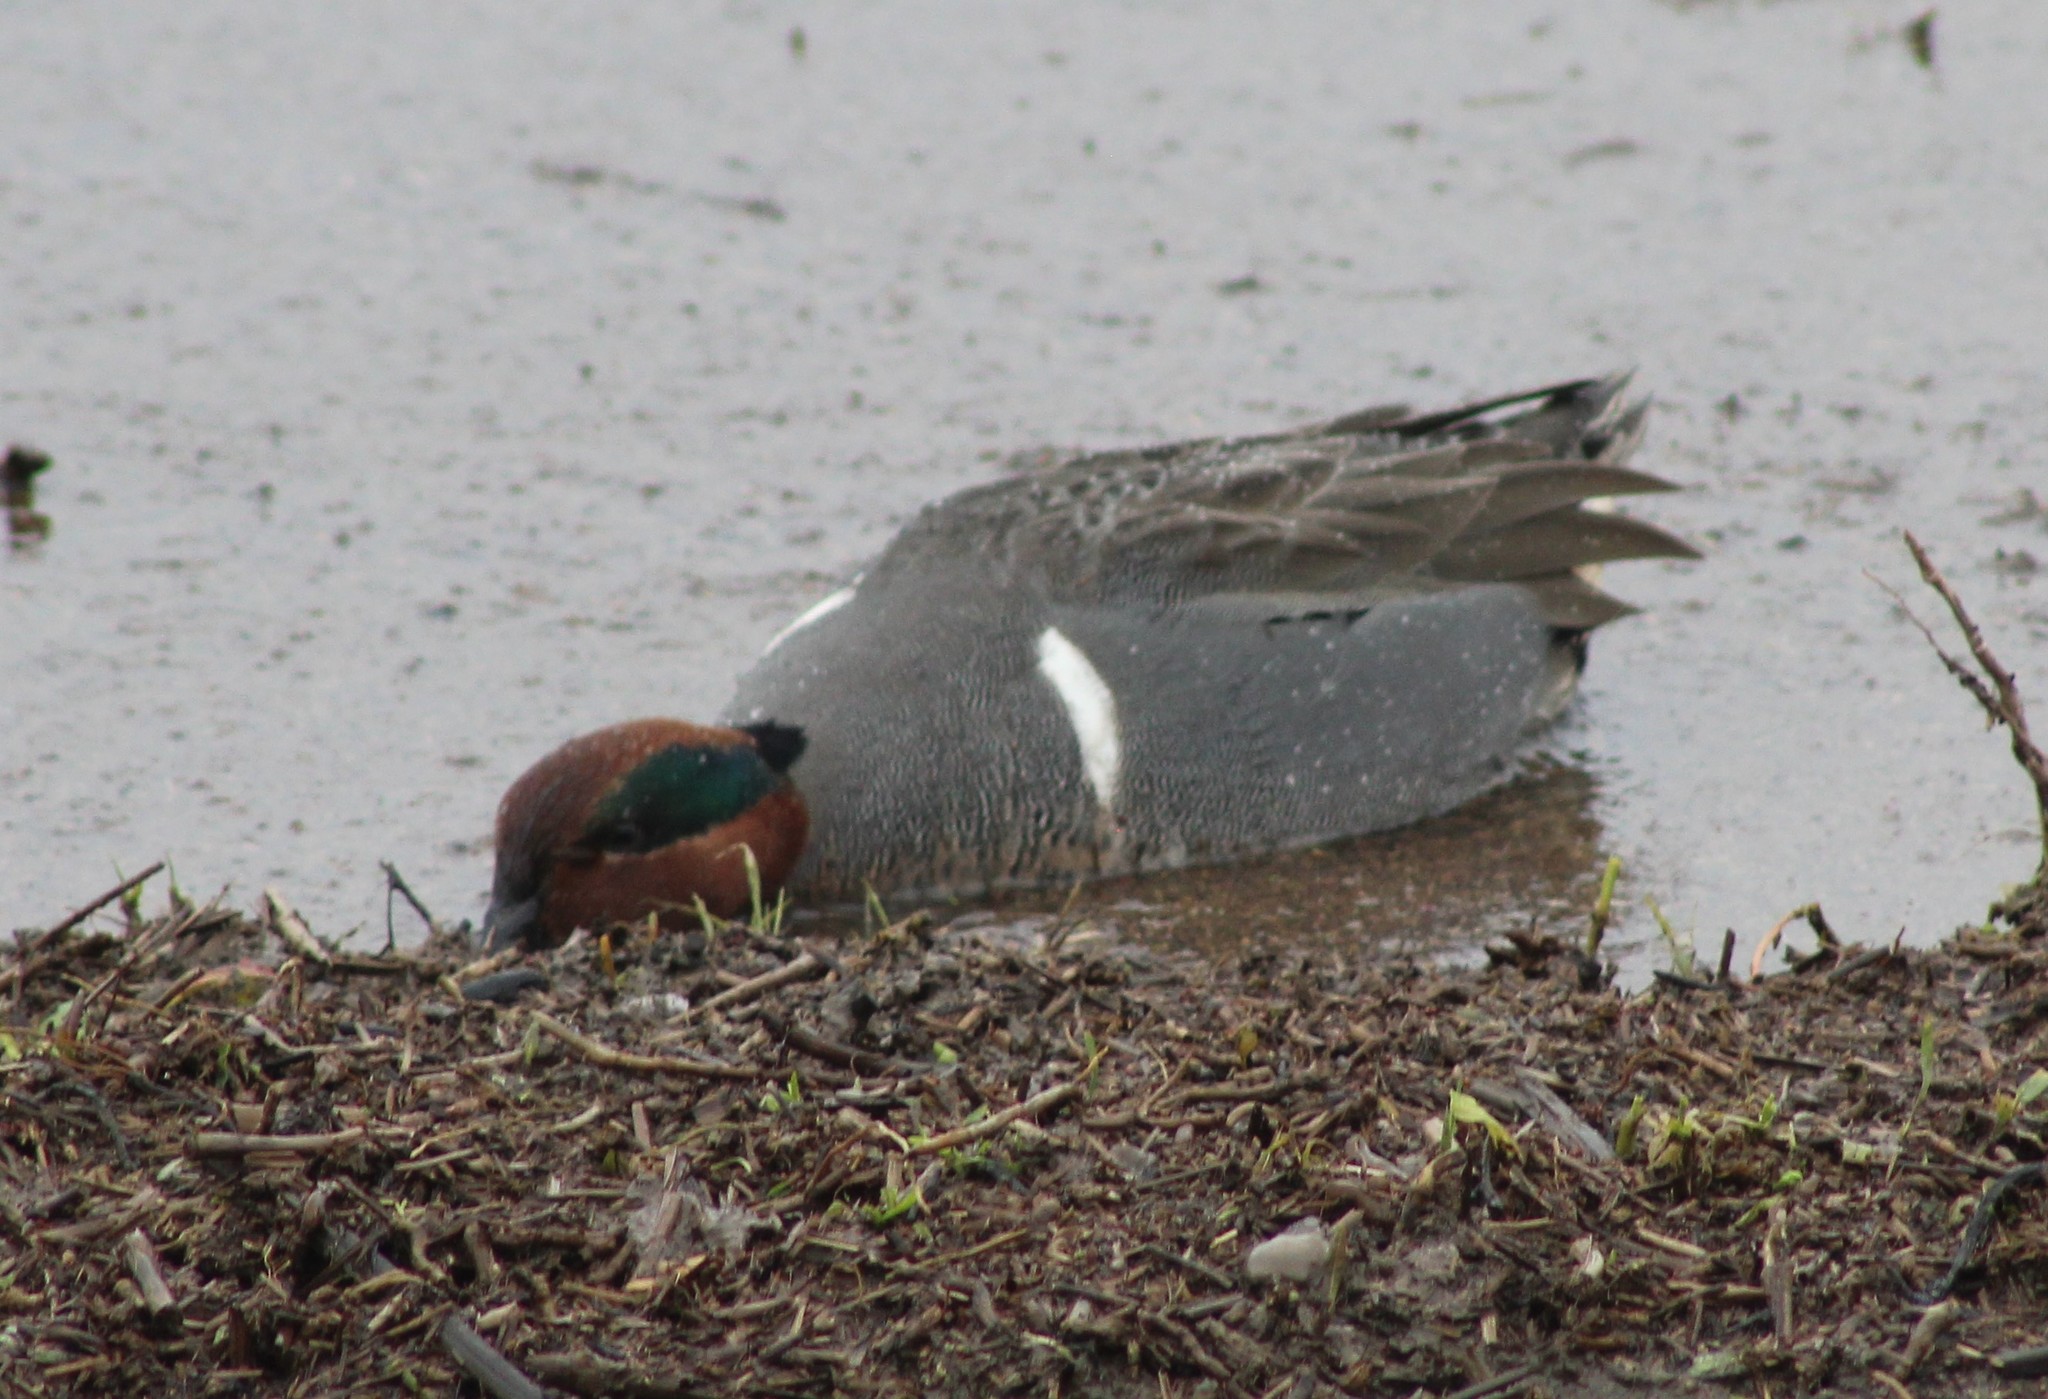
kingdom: Animalia
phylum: Chordata
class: Aves
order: Anseriformes
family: Anatidae
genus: Anas
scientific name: Anas crecca
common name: Eurasian teal
